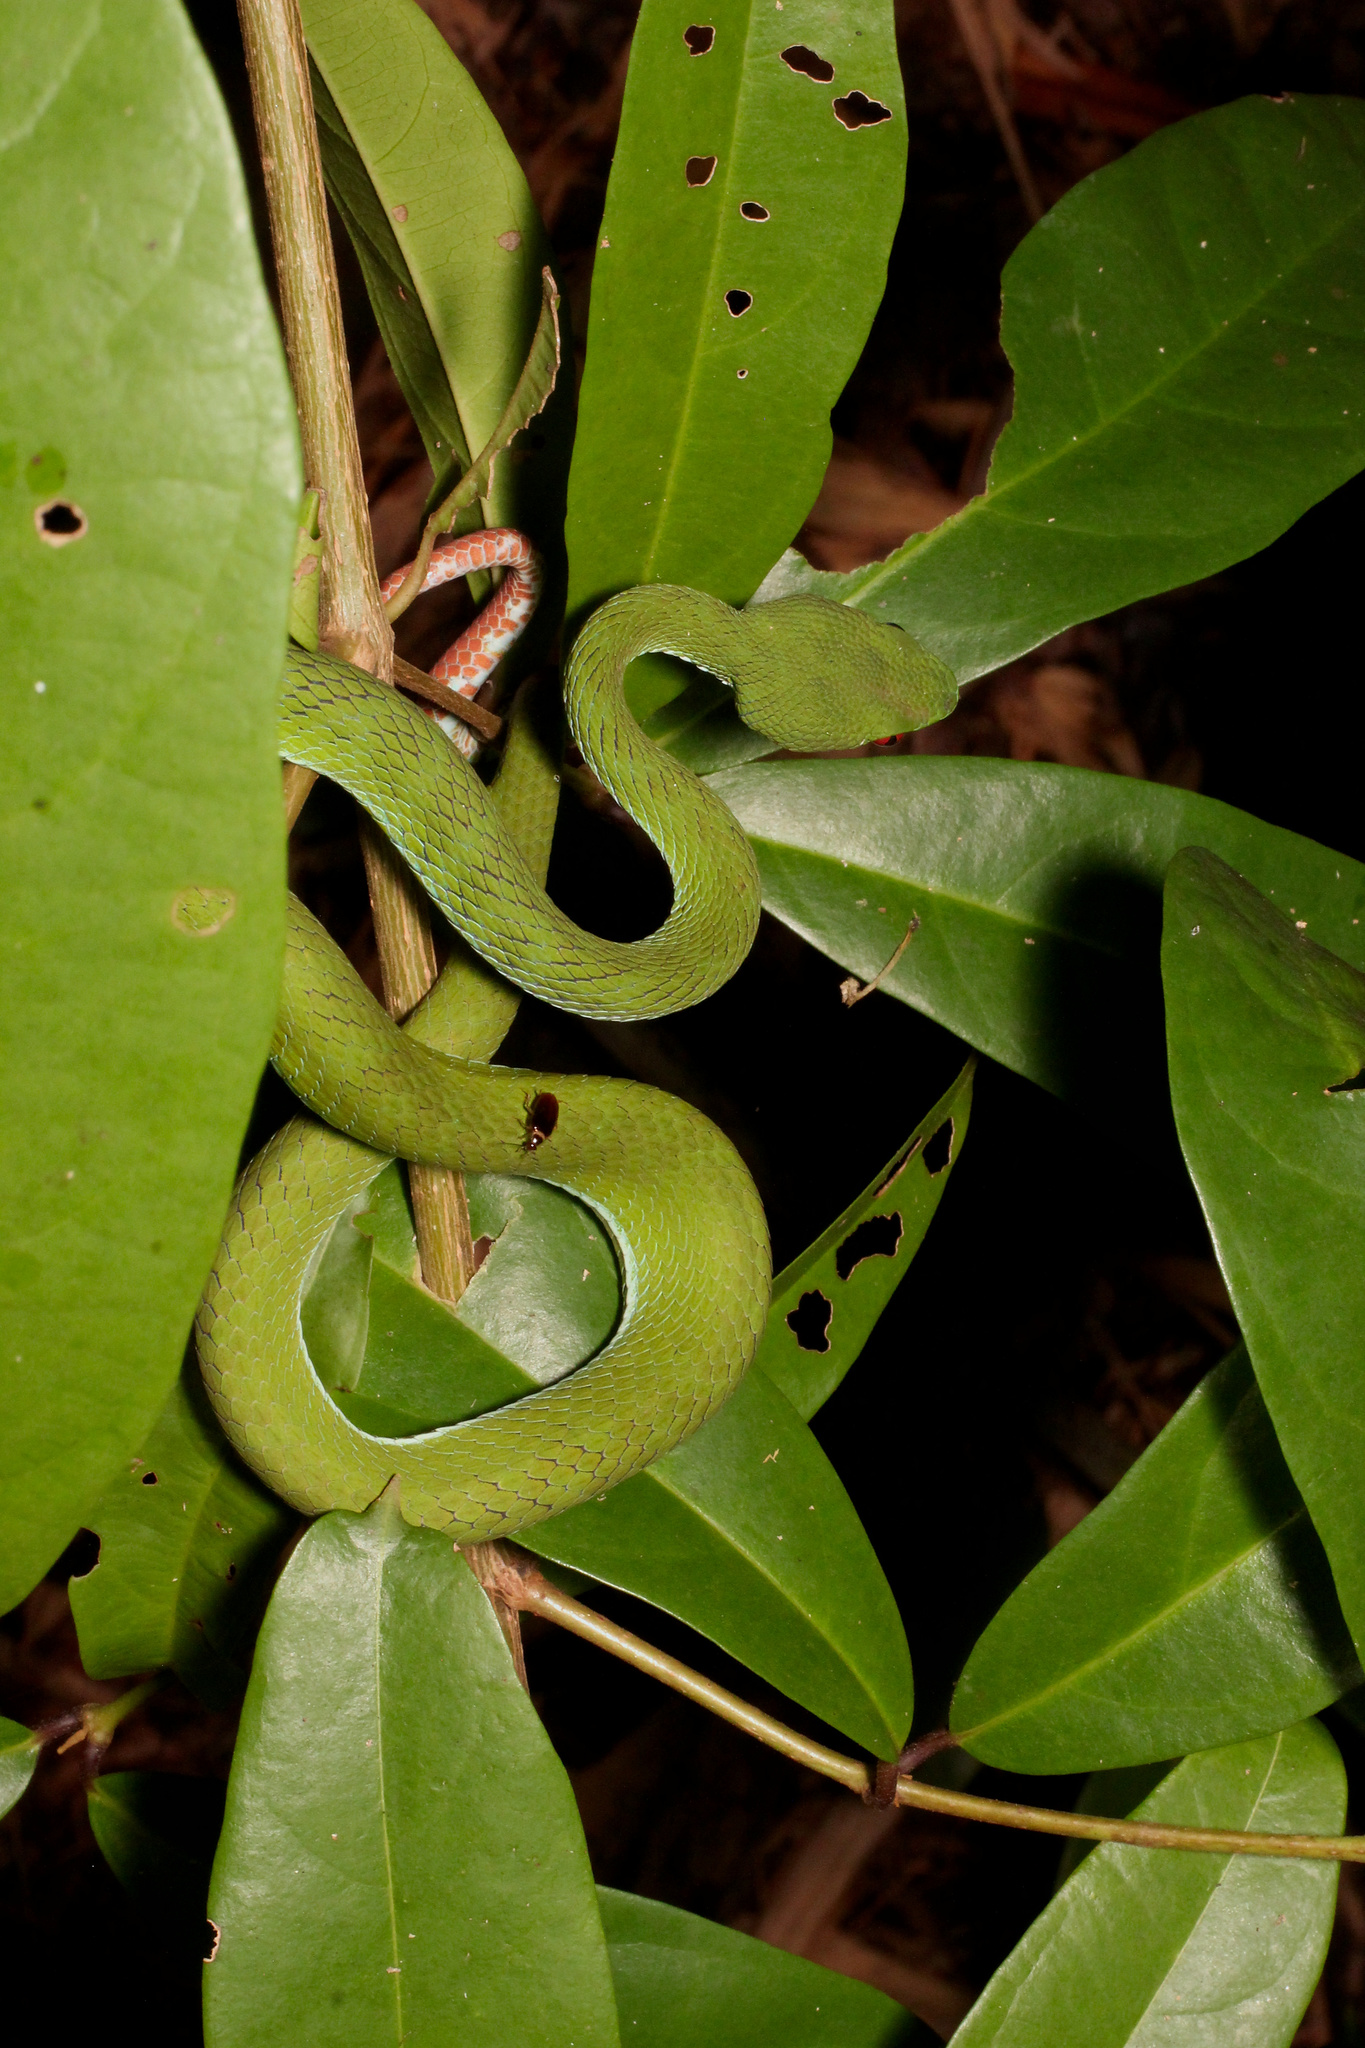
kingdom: Animalia
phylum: Chordata
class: Squamata
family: Viperidae
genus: Craspedocephalus
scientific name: Craspedocephalus rubeus
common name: Ruby-eyed green pitviper
